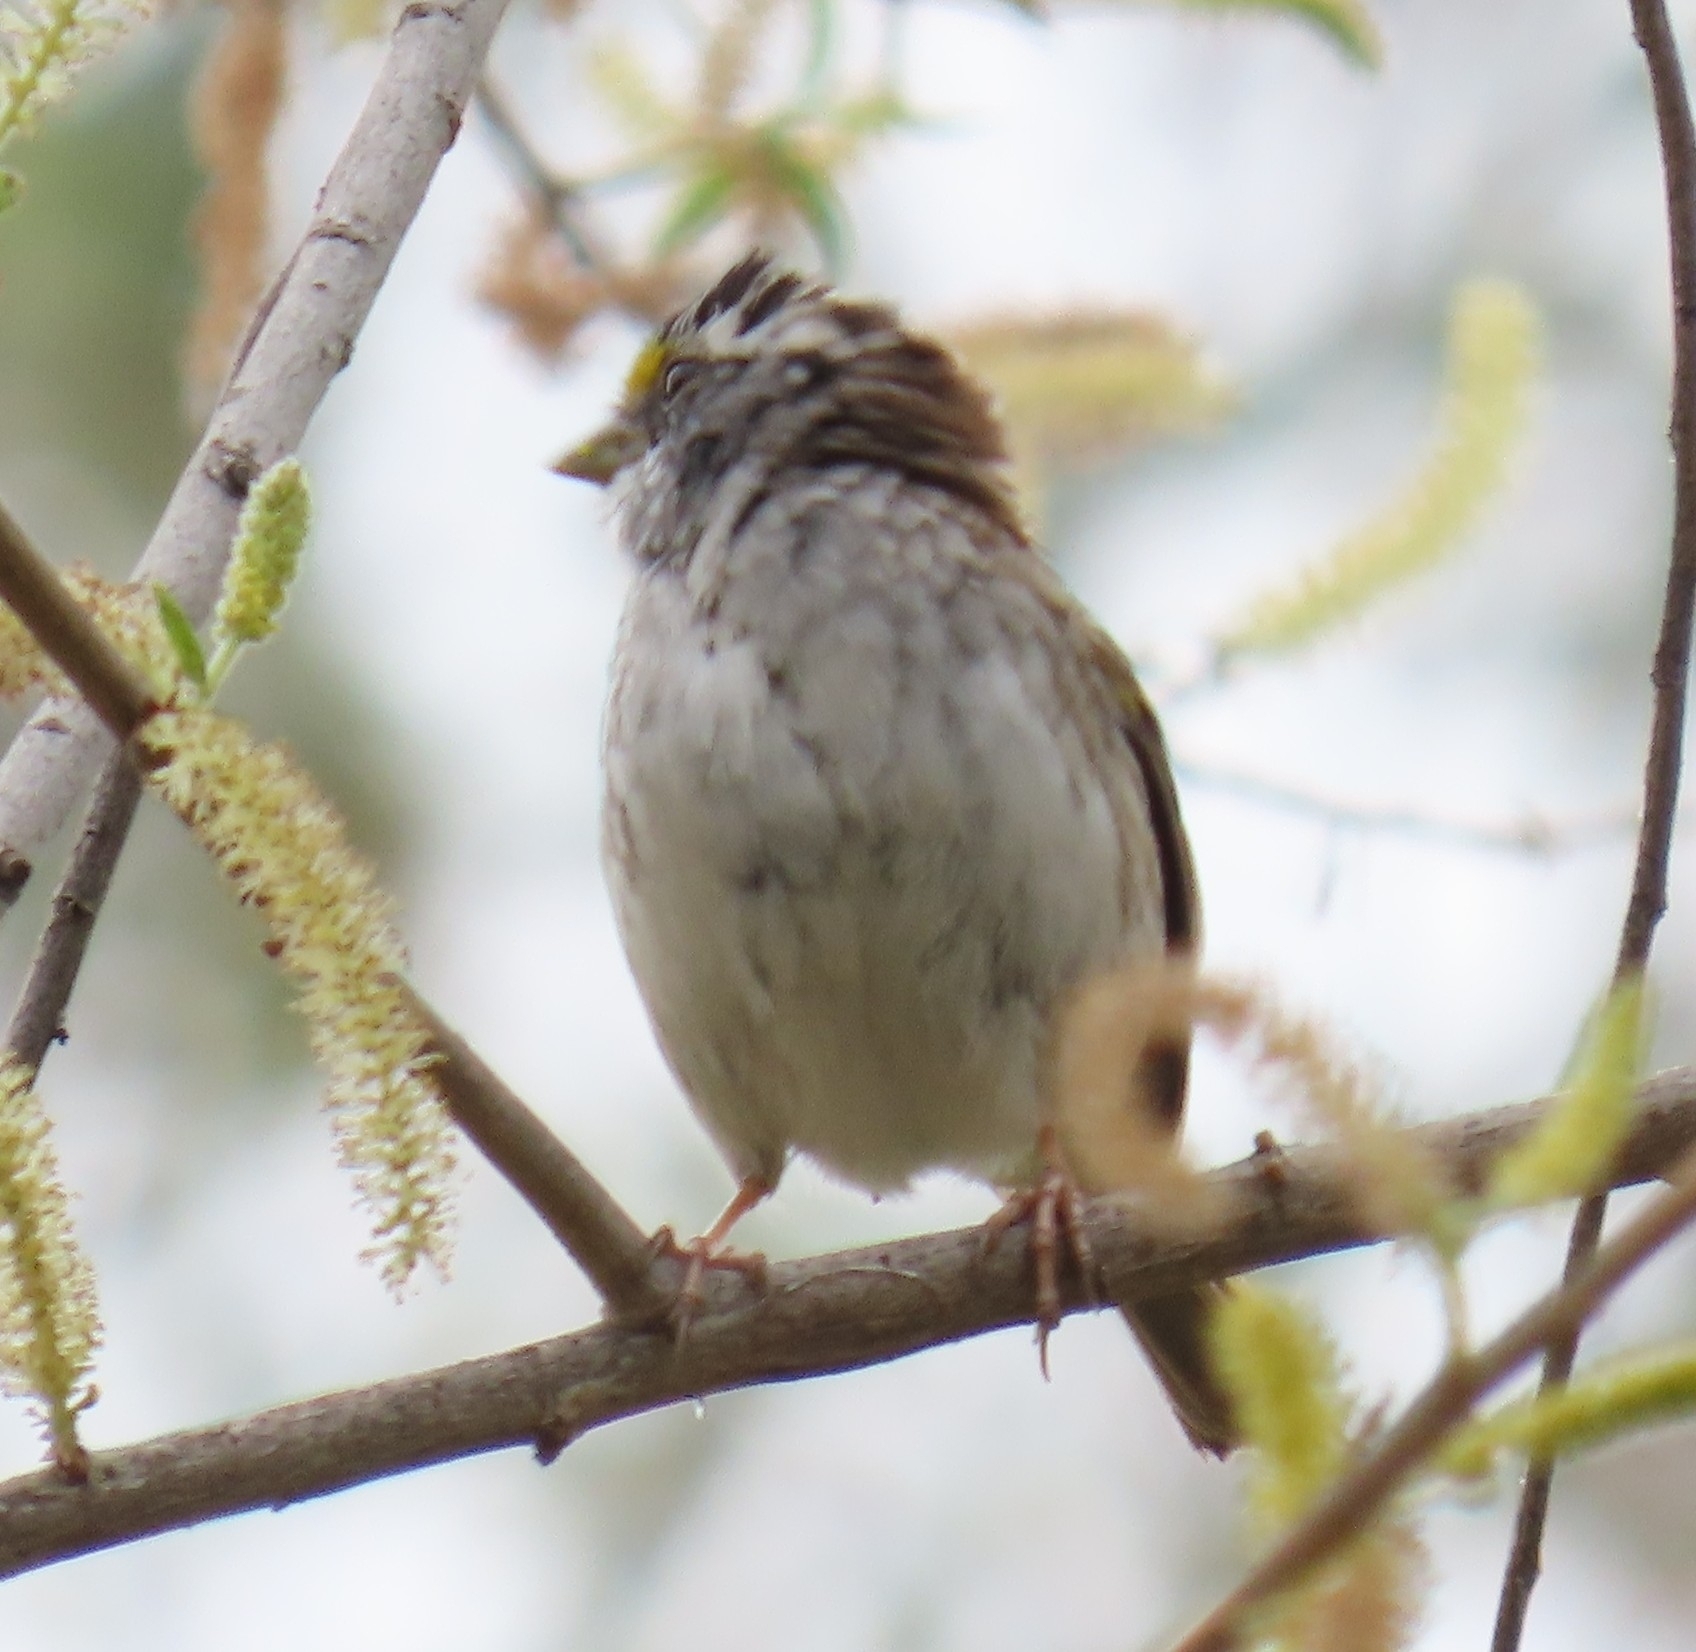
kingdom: Animalia
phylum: Chordata
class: Aves
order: Passeriformes
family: Passerellidae
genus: Zonotrichia
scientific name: Zonotrichia albicollis
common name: White-throated sparrow
